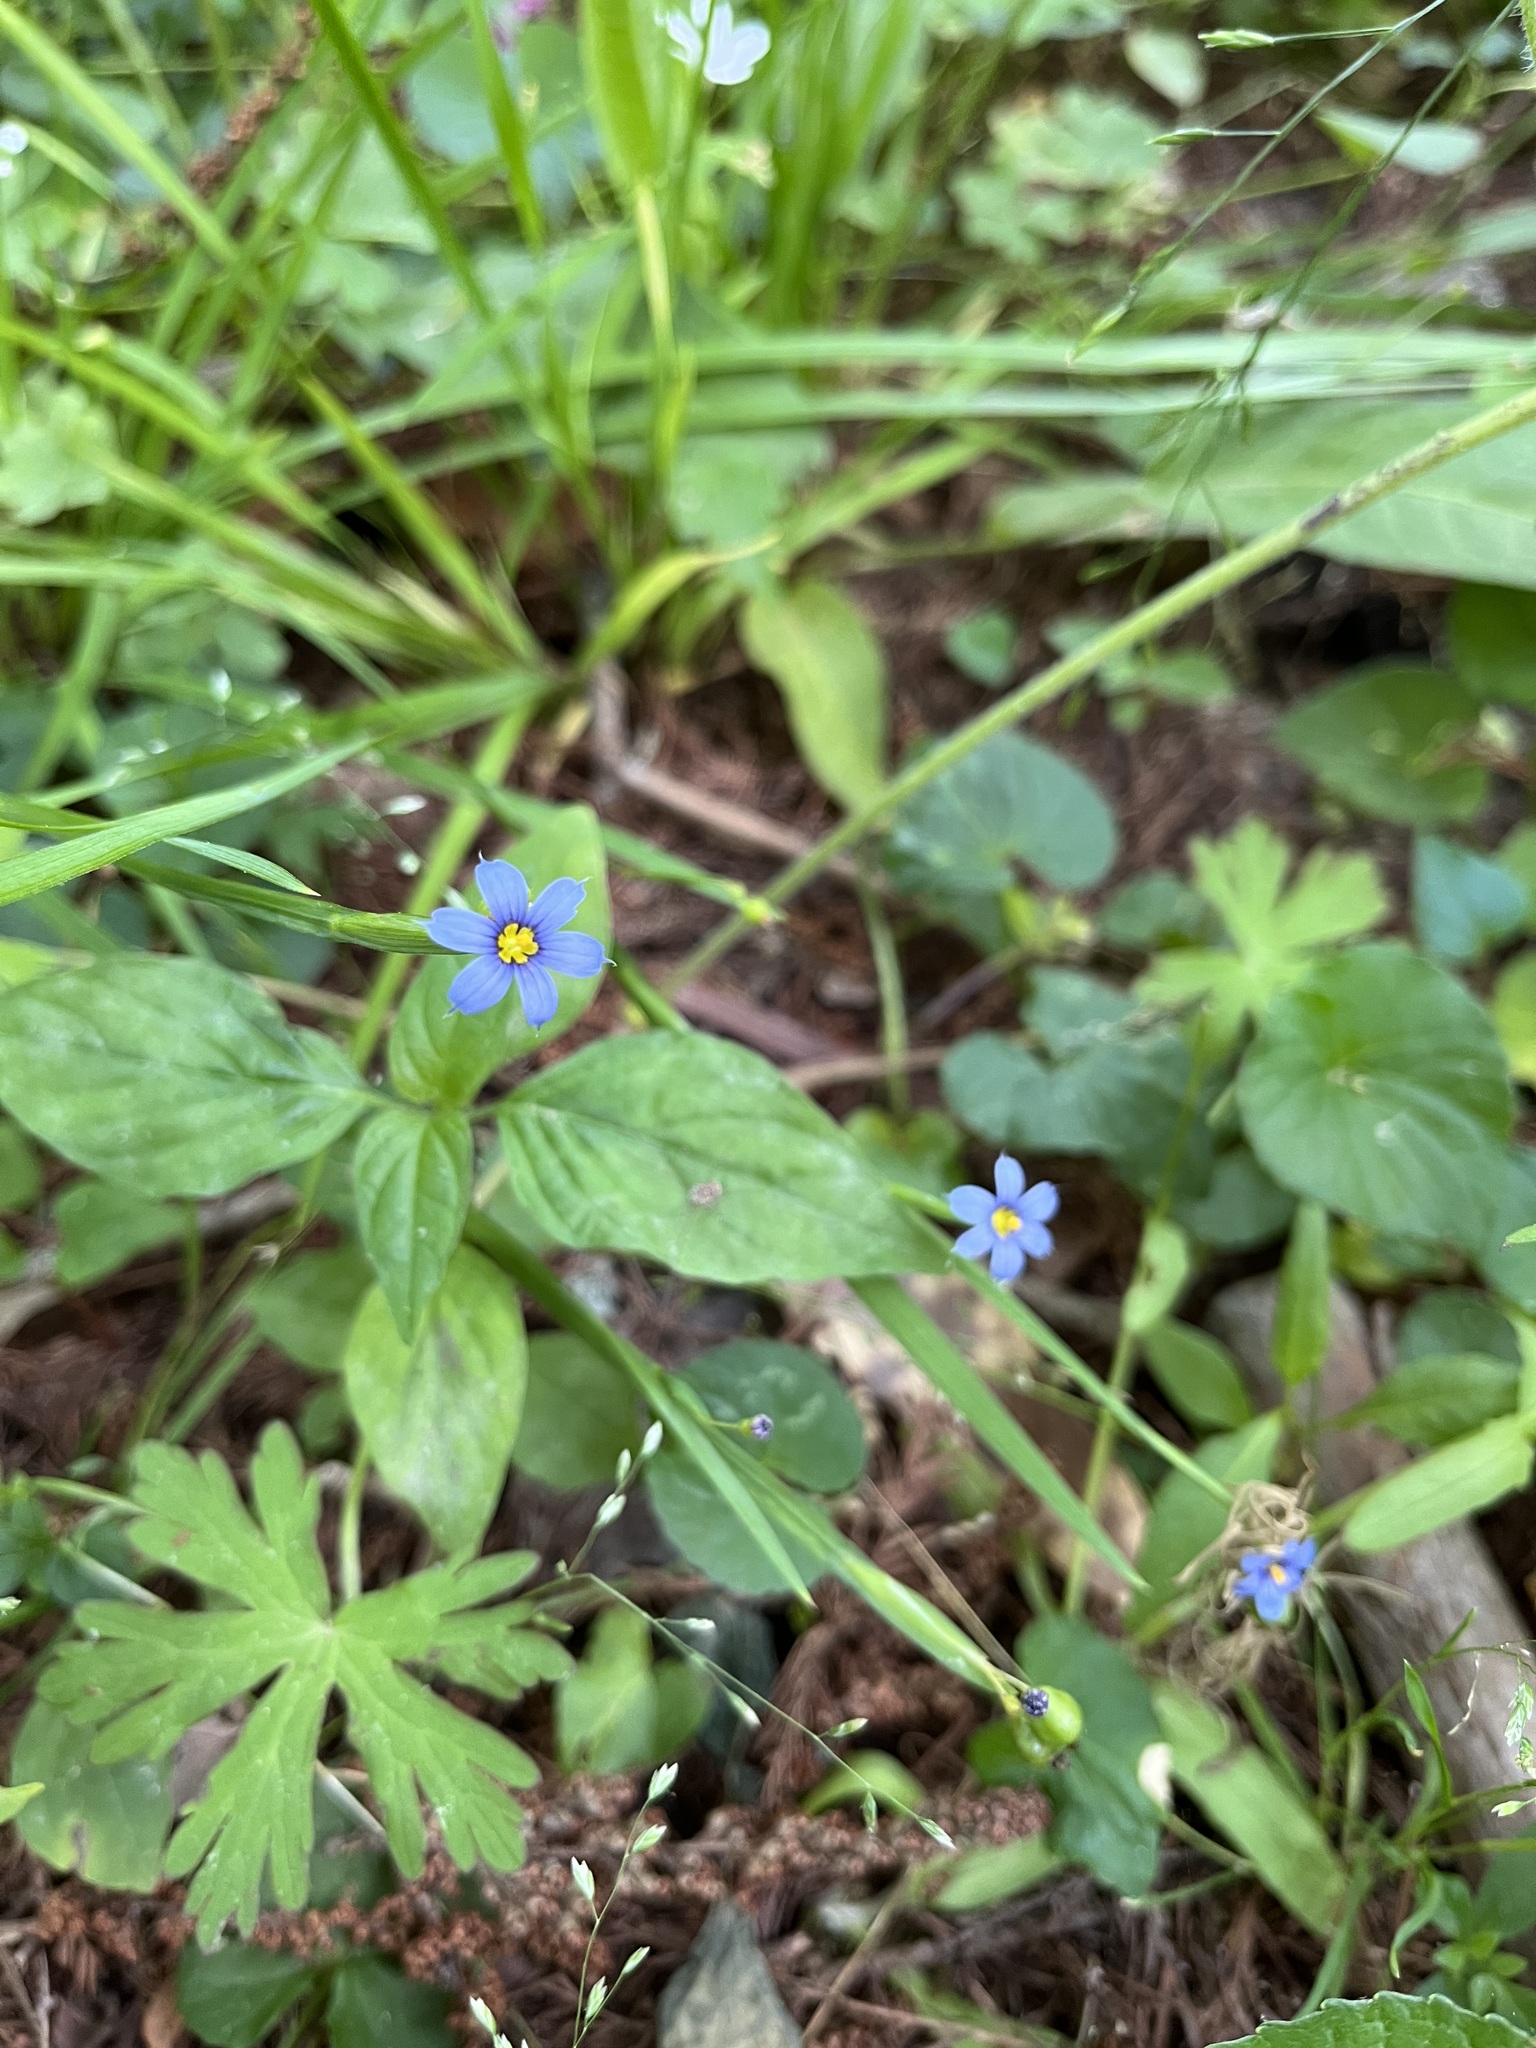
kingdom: Plantae
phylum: Tracheophyta
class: Liliopsida
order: Asparagales
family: Iridaceae
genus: Sisyrinchium
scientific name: Sisyrinchium angustifolium
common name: Narrow-leaf blue-eyed-grass
